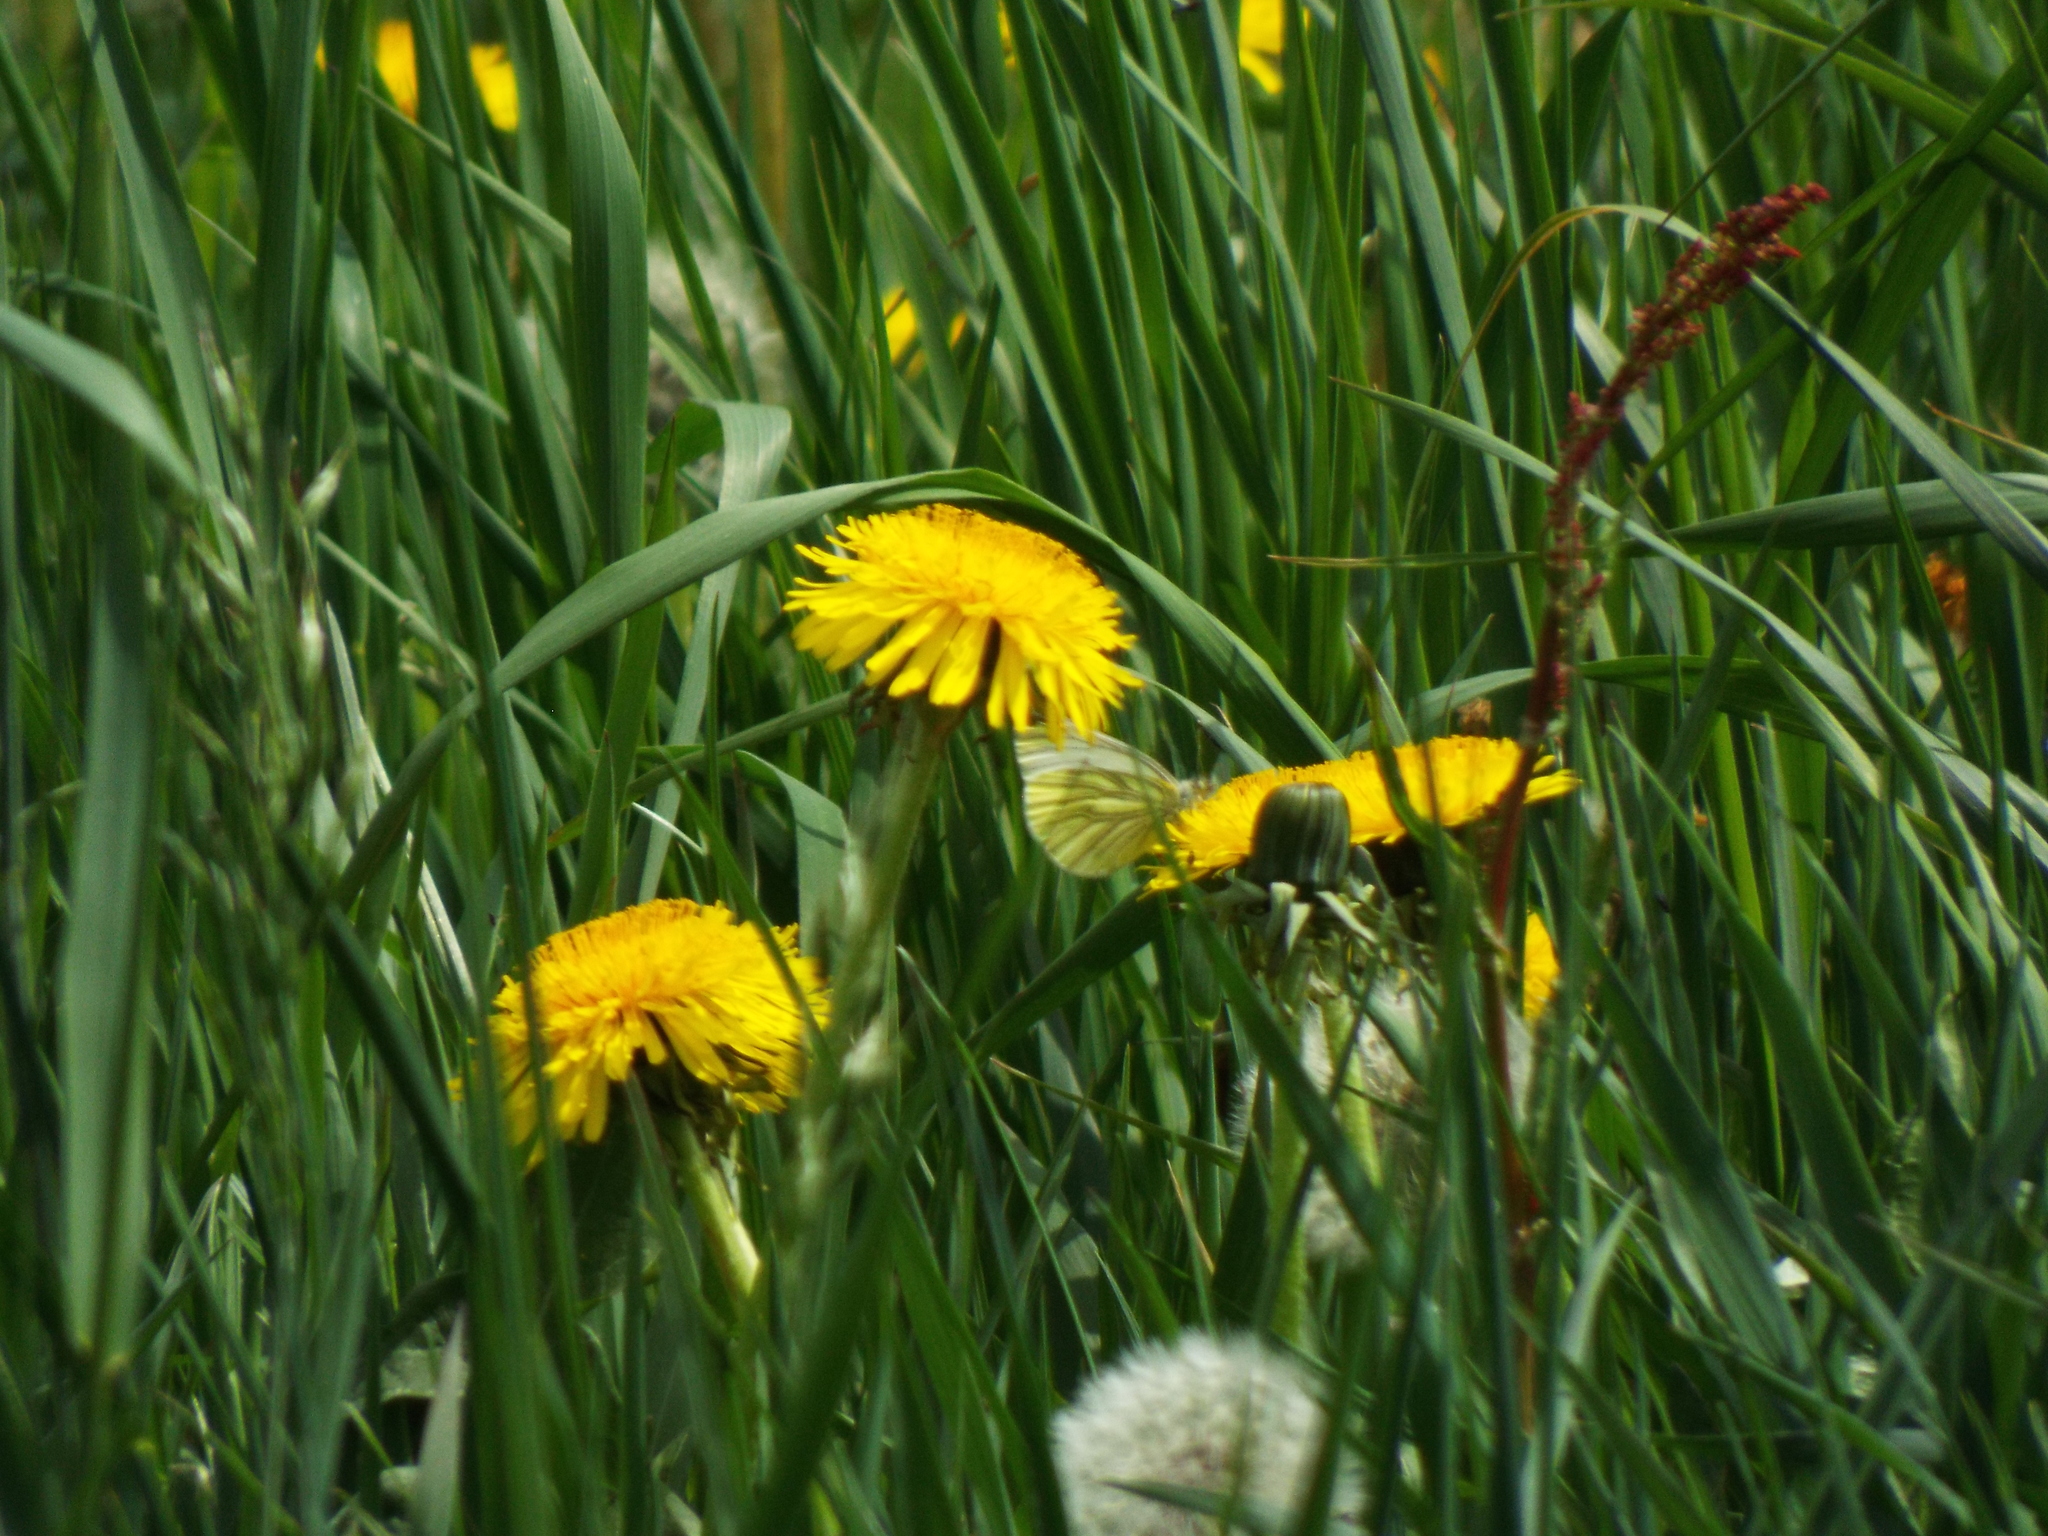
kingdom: Animalia
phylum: Arthropoda
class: Insecta
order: Lepidoptera
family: Pieridae
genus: Pieris
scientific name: Pieris napi
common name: Green-veined white
